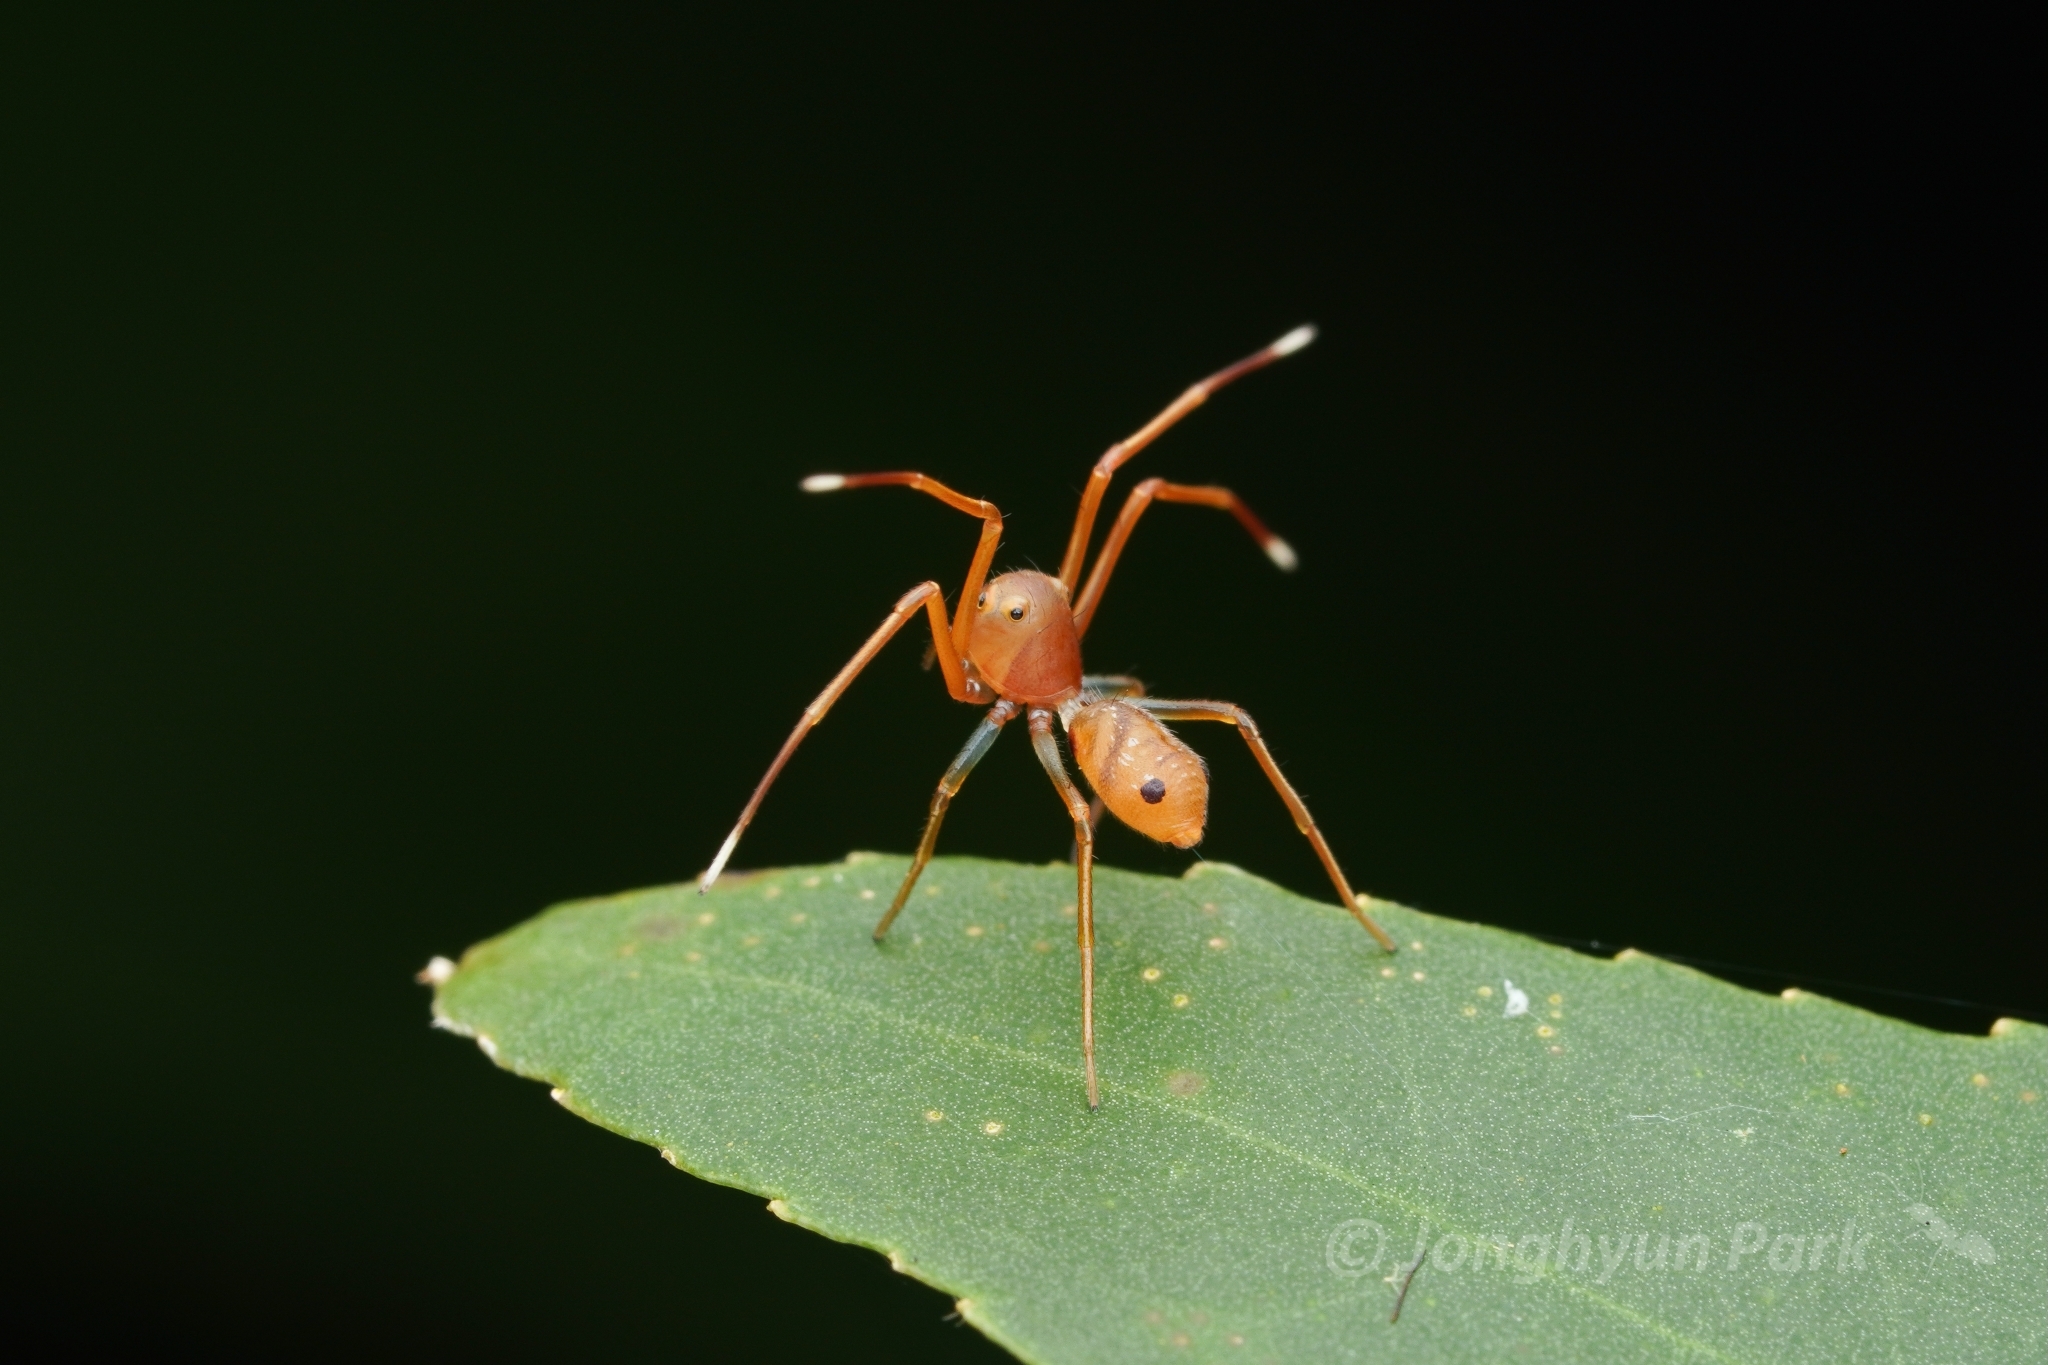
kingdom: Animalia
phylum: Arthropoda
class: Arachnida
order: Araneae
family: Thomisidae
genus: Amyciaea
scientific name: Amyciaea forticeps
